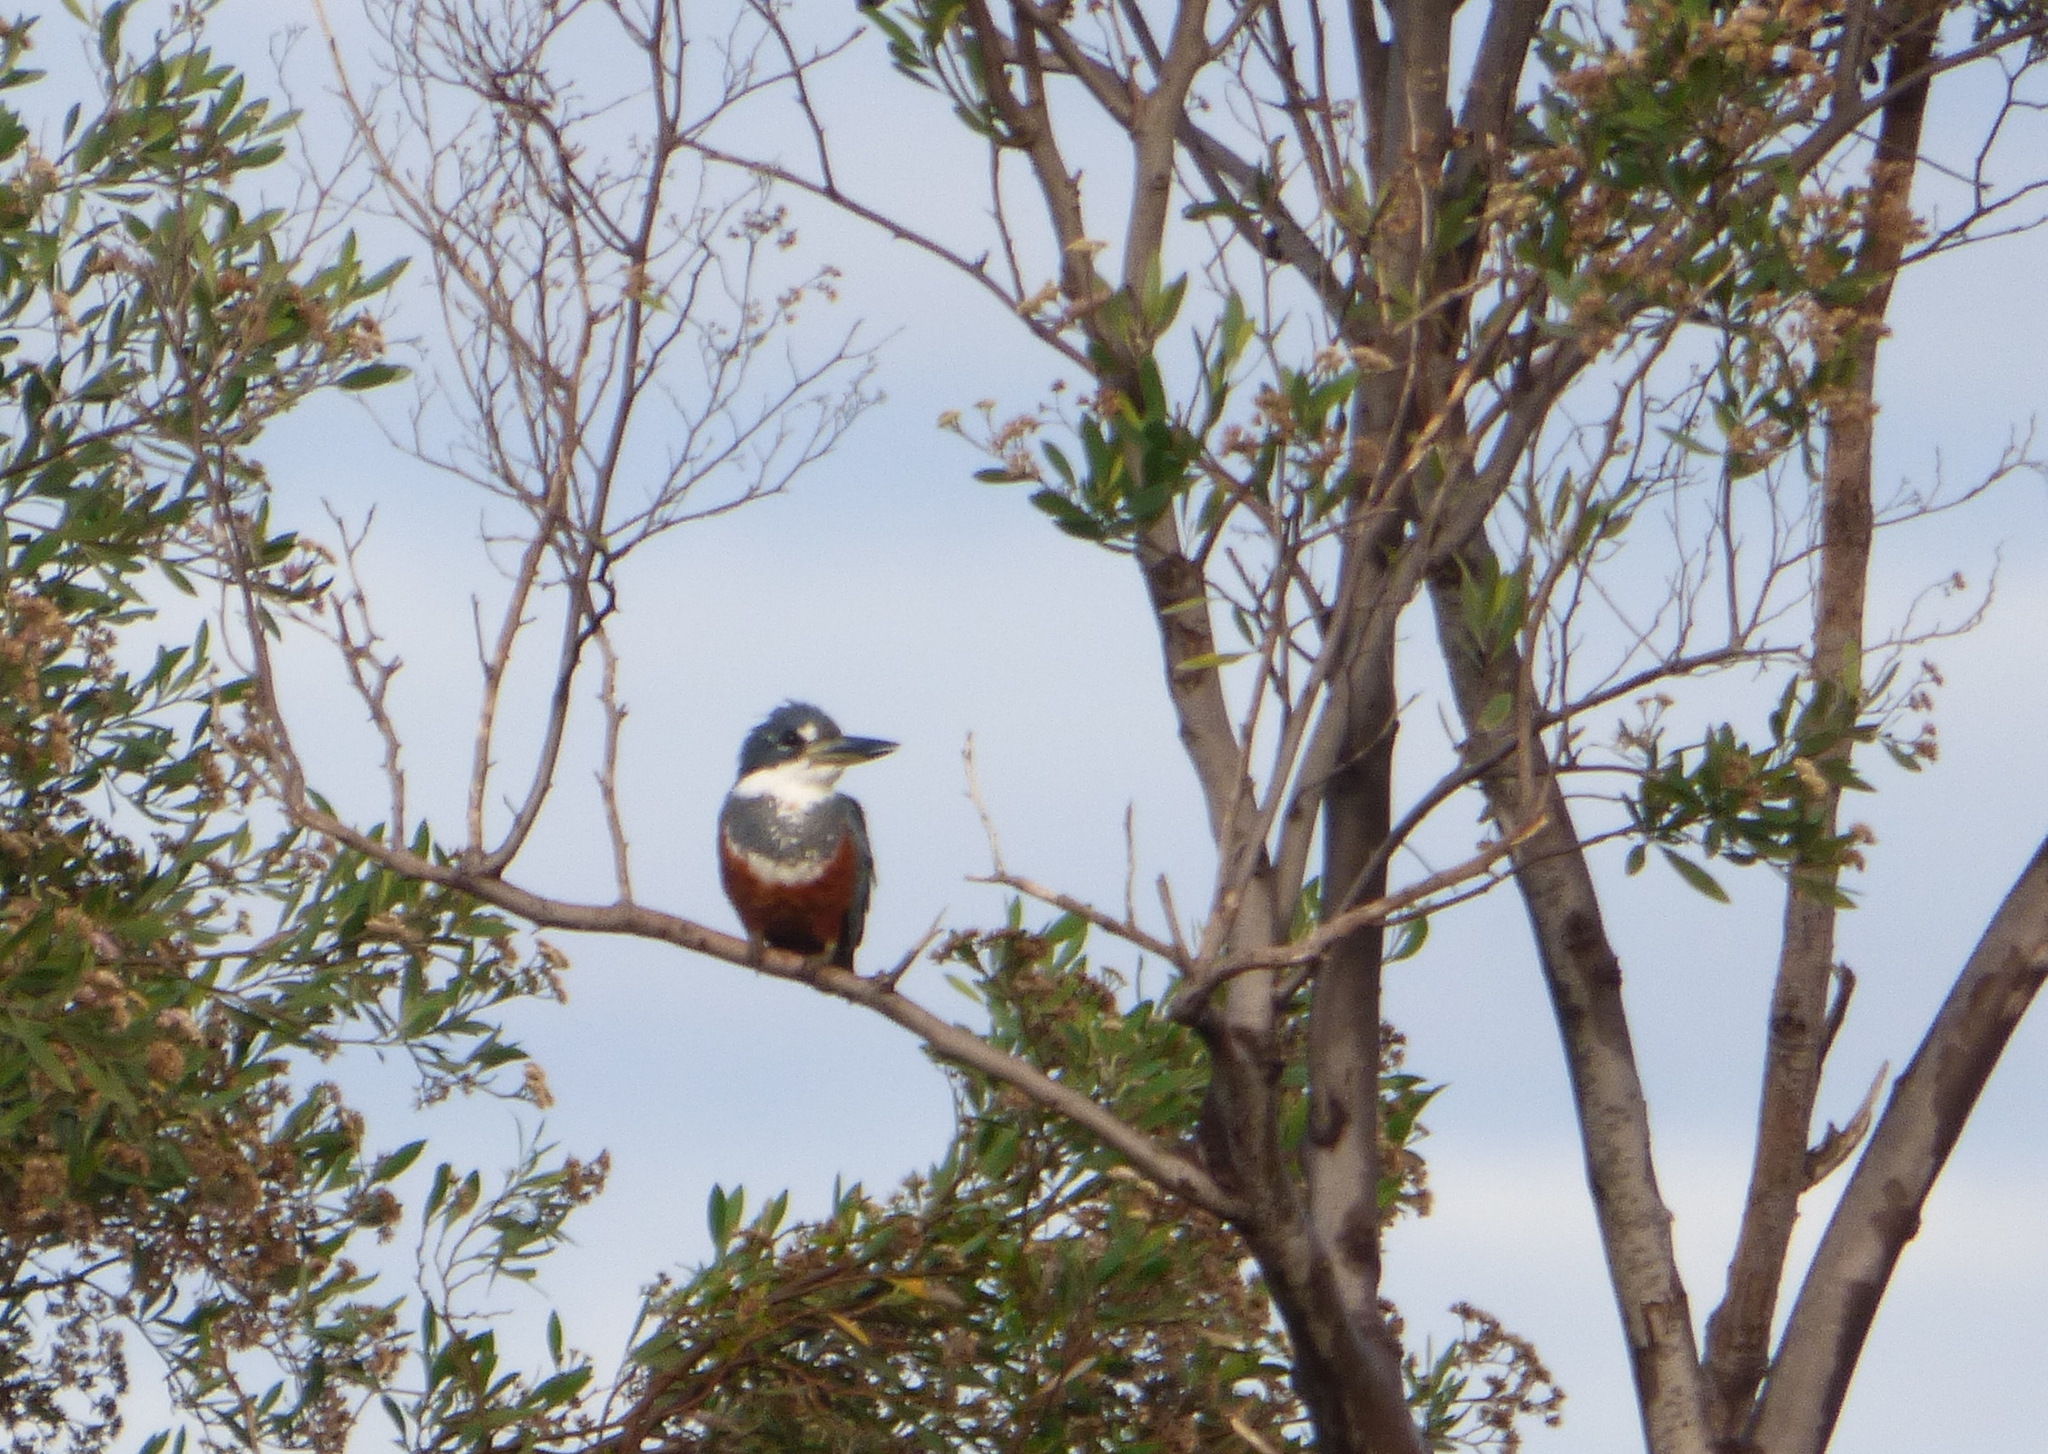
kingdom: Animalia
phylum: Chordata
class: Aves
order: Coraciiformes
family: Alcedinidae
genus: Megaceryle
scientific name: Megaceryle torquata
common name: Ringed kingfisher
